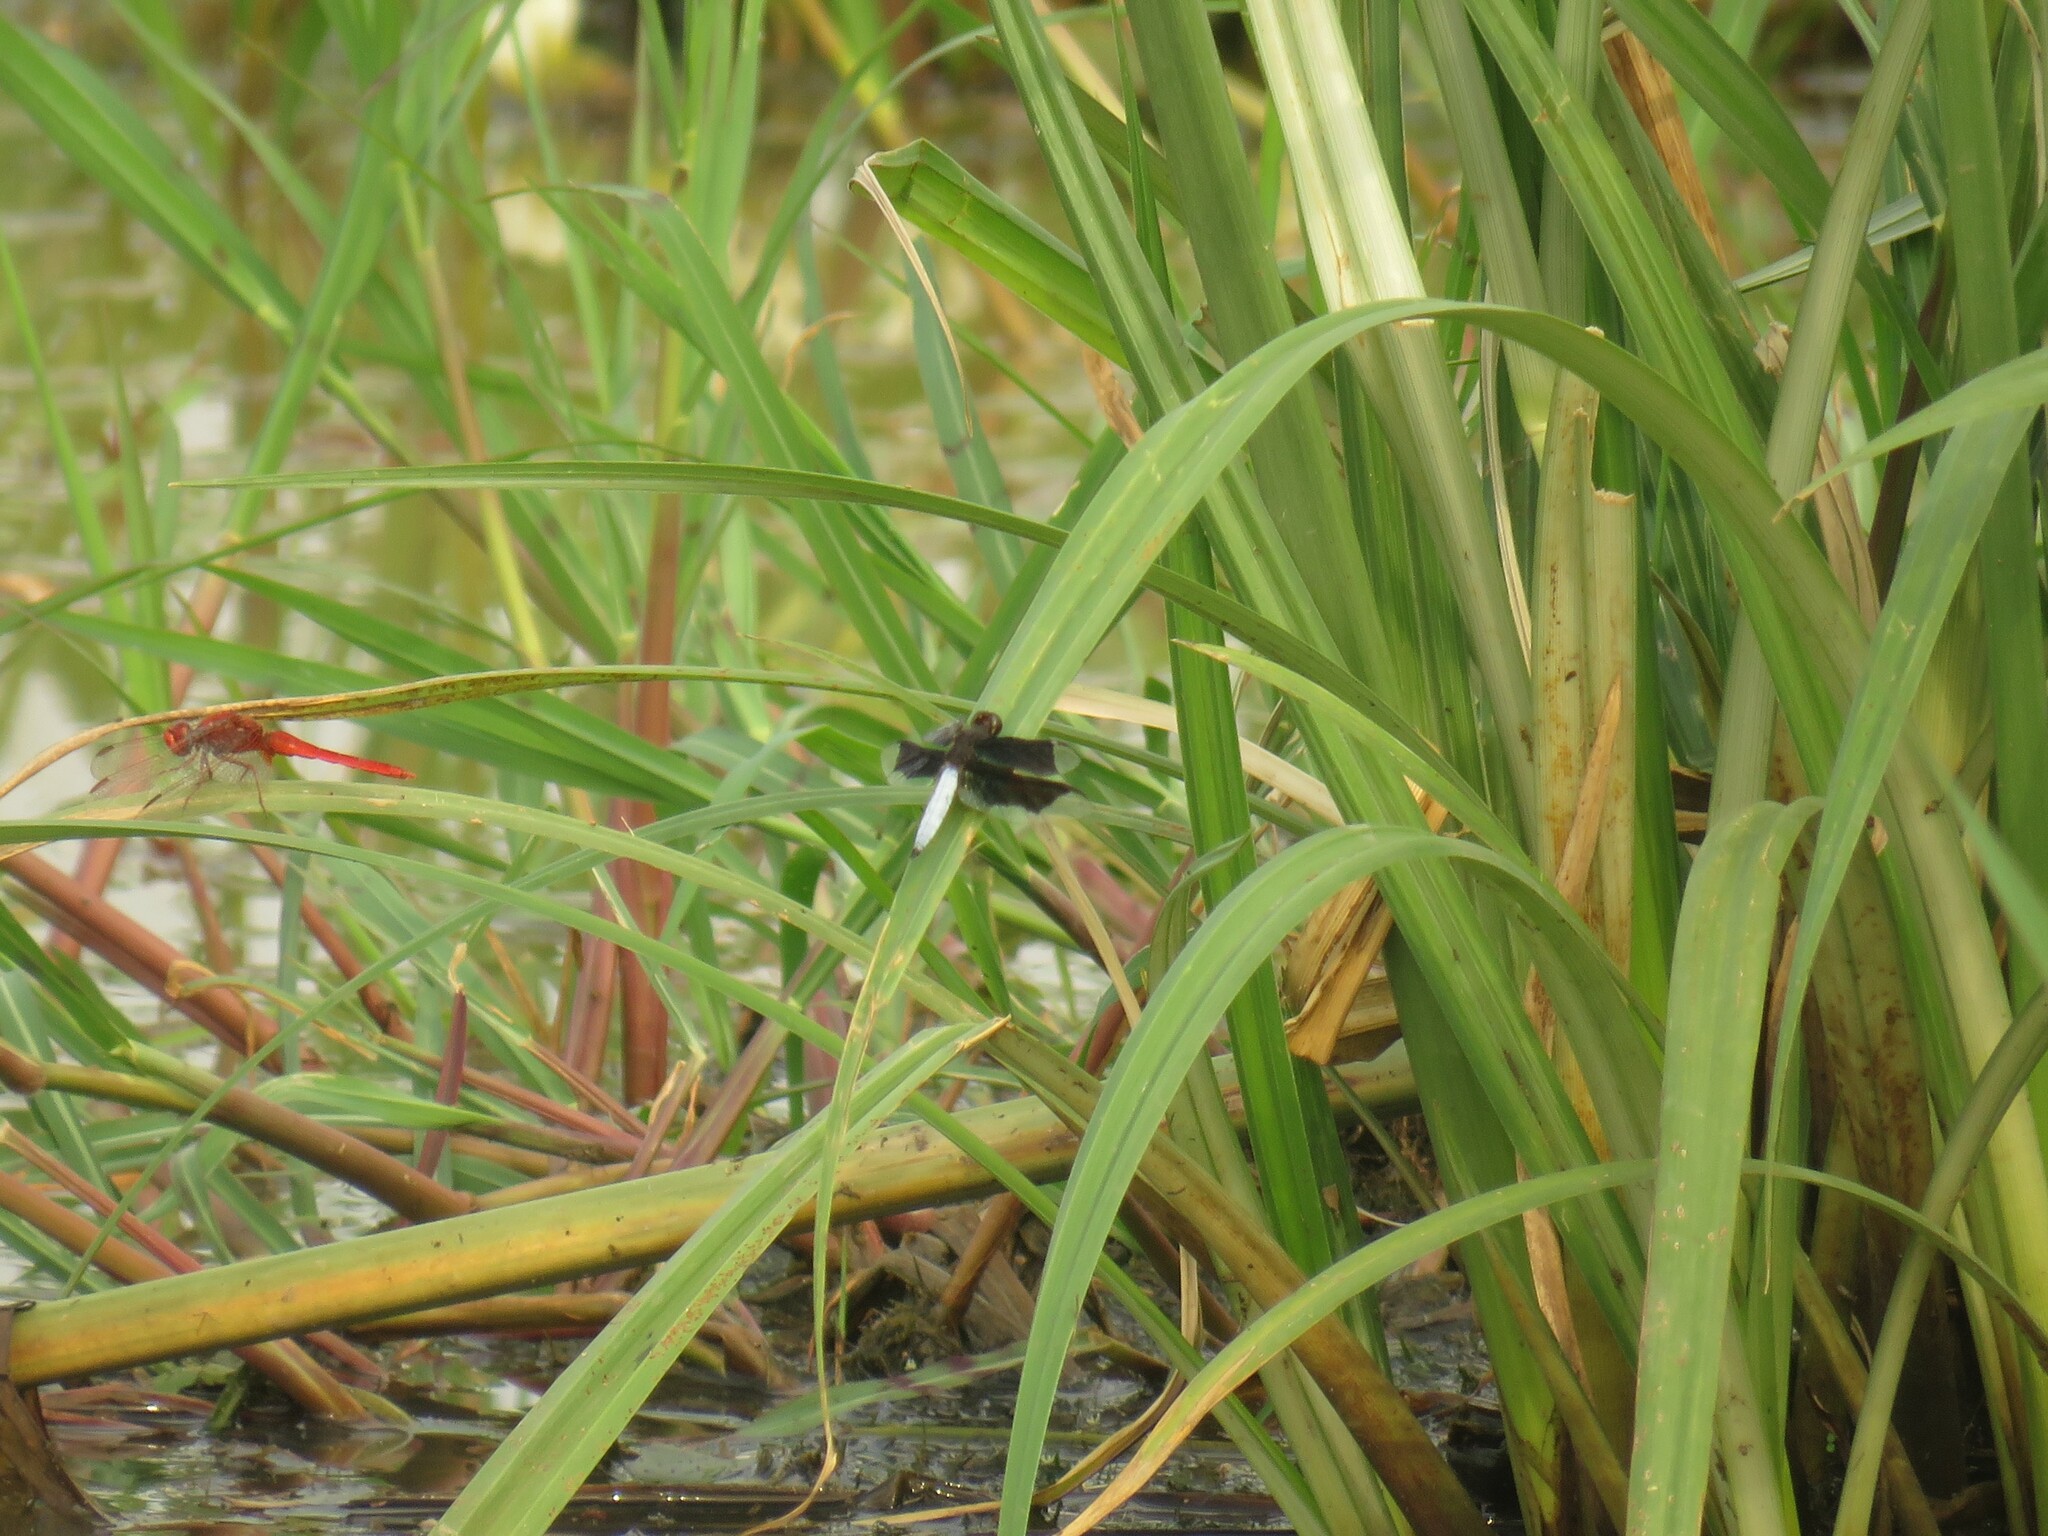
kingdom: Animalia
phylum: Arthropoda
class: Insecta
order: Odonata
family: Libellulidae
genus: Palpopleura
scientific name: Palpopleura lucia
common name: Lucia widow
